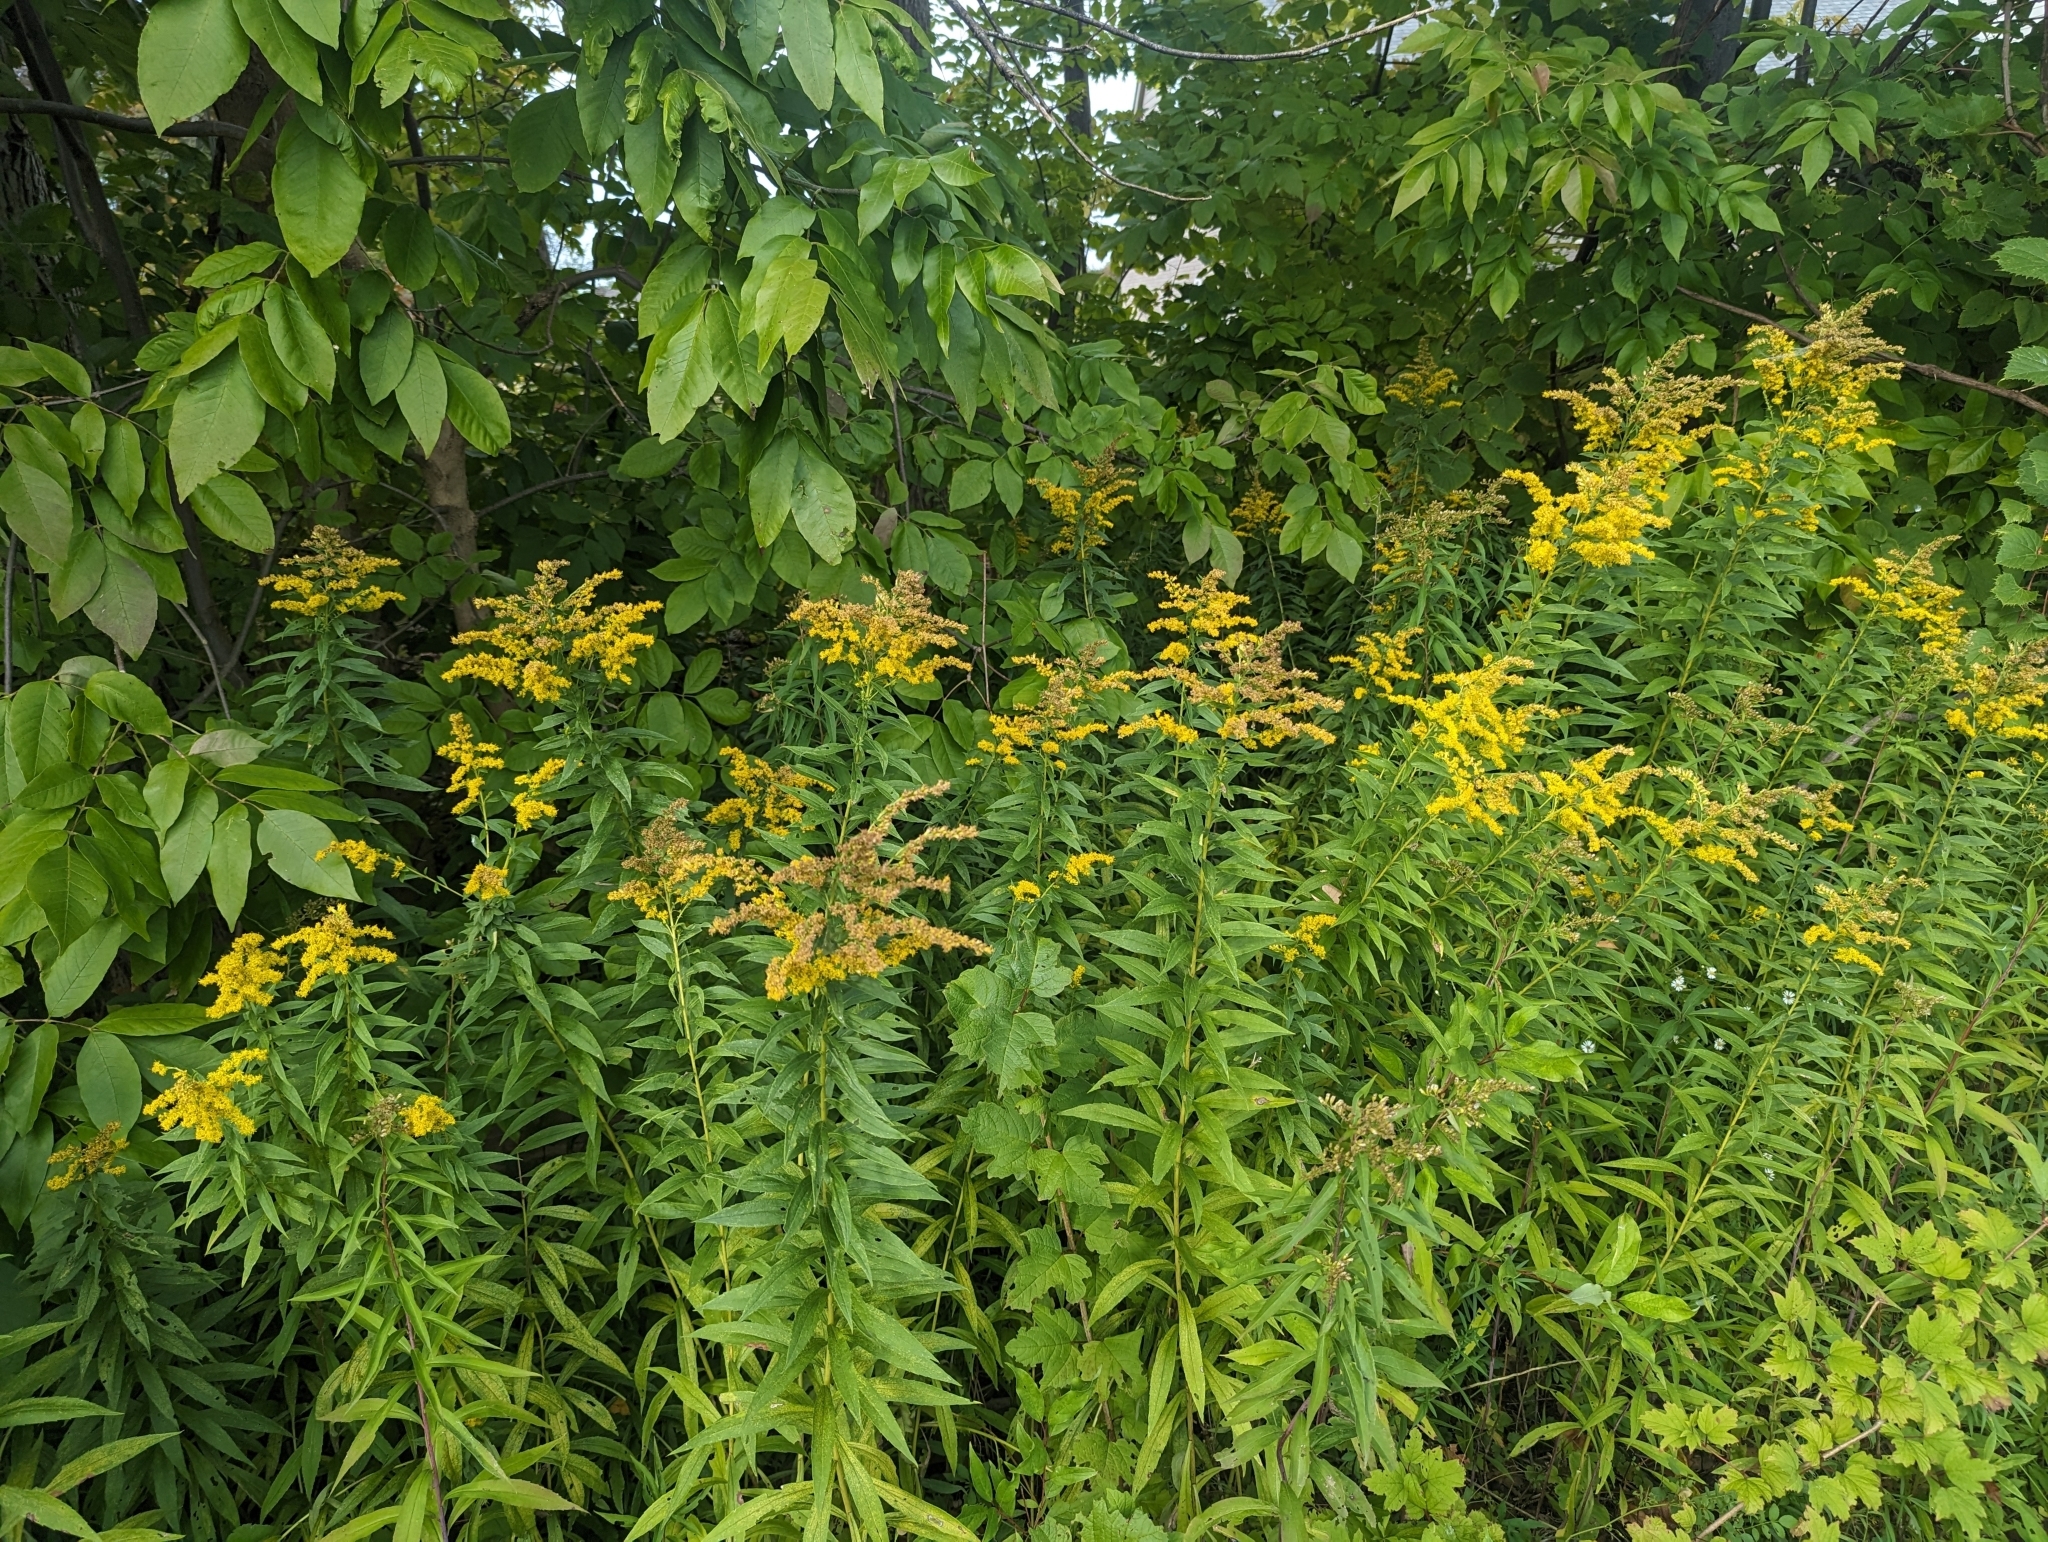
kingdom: Plantae
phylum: Tracheophyta
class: Magnoliopsida
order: Asterales
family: Asteraceae
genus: Solidago
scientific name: Solidago altissima
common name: Late goldenrod
